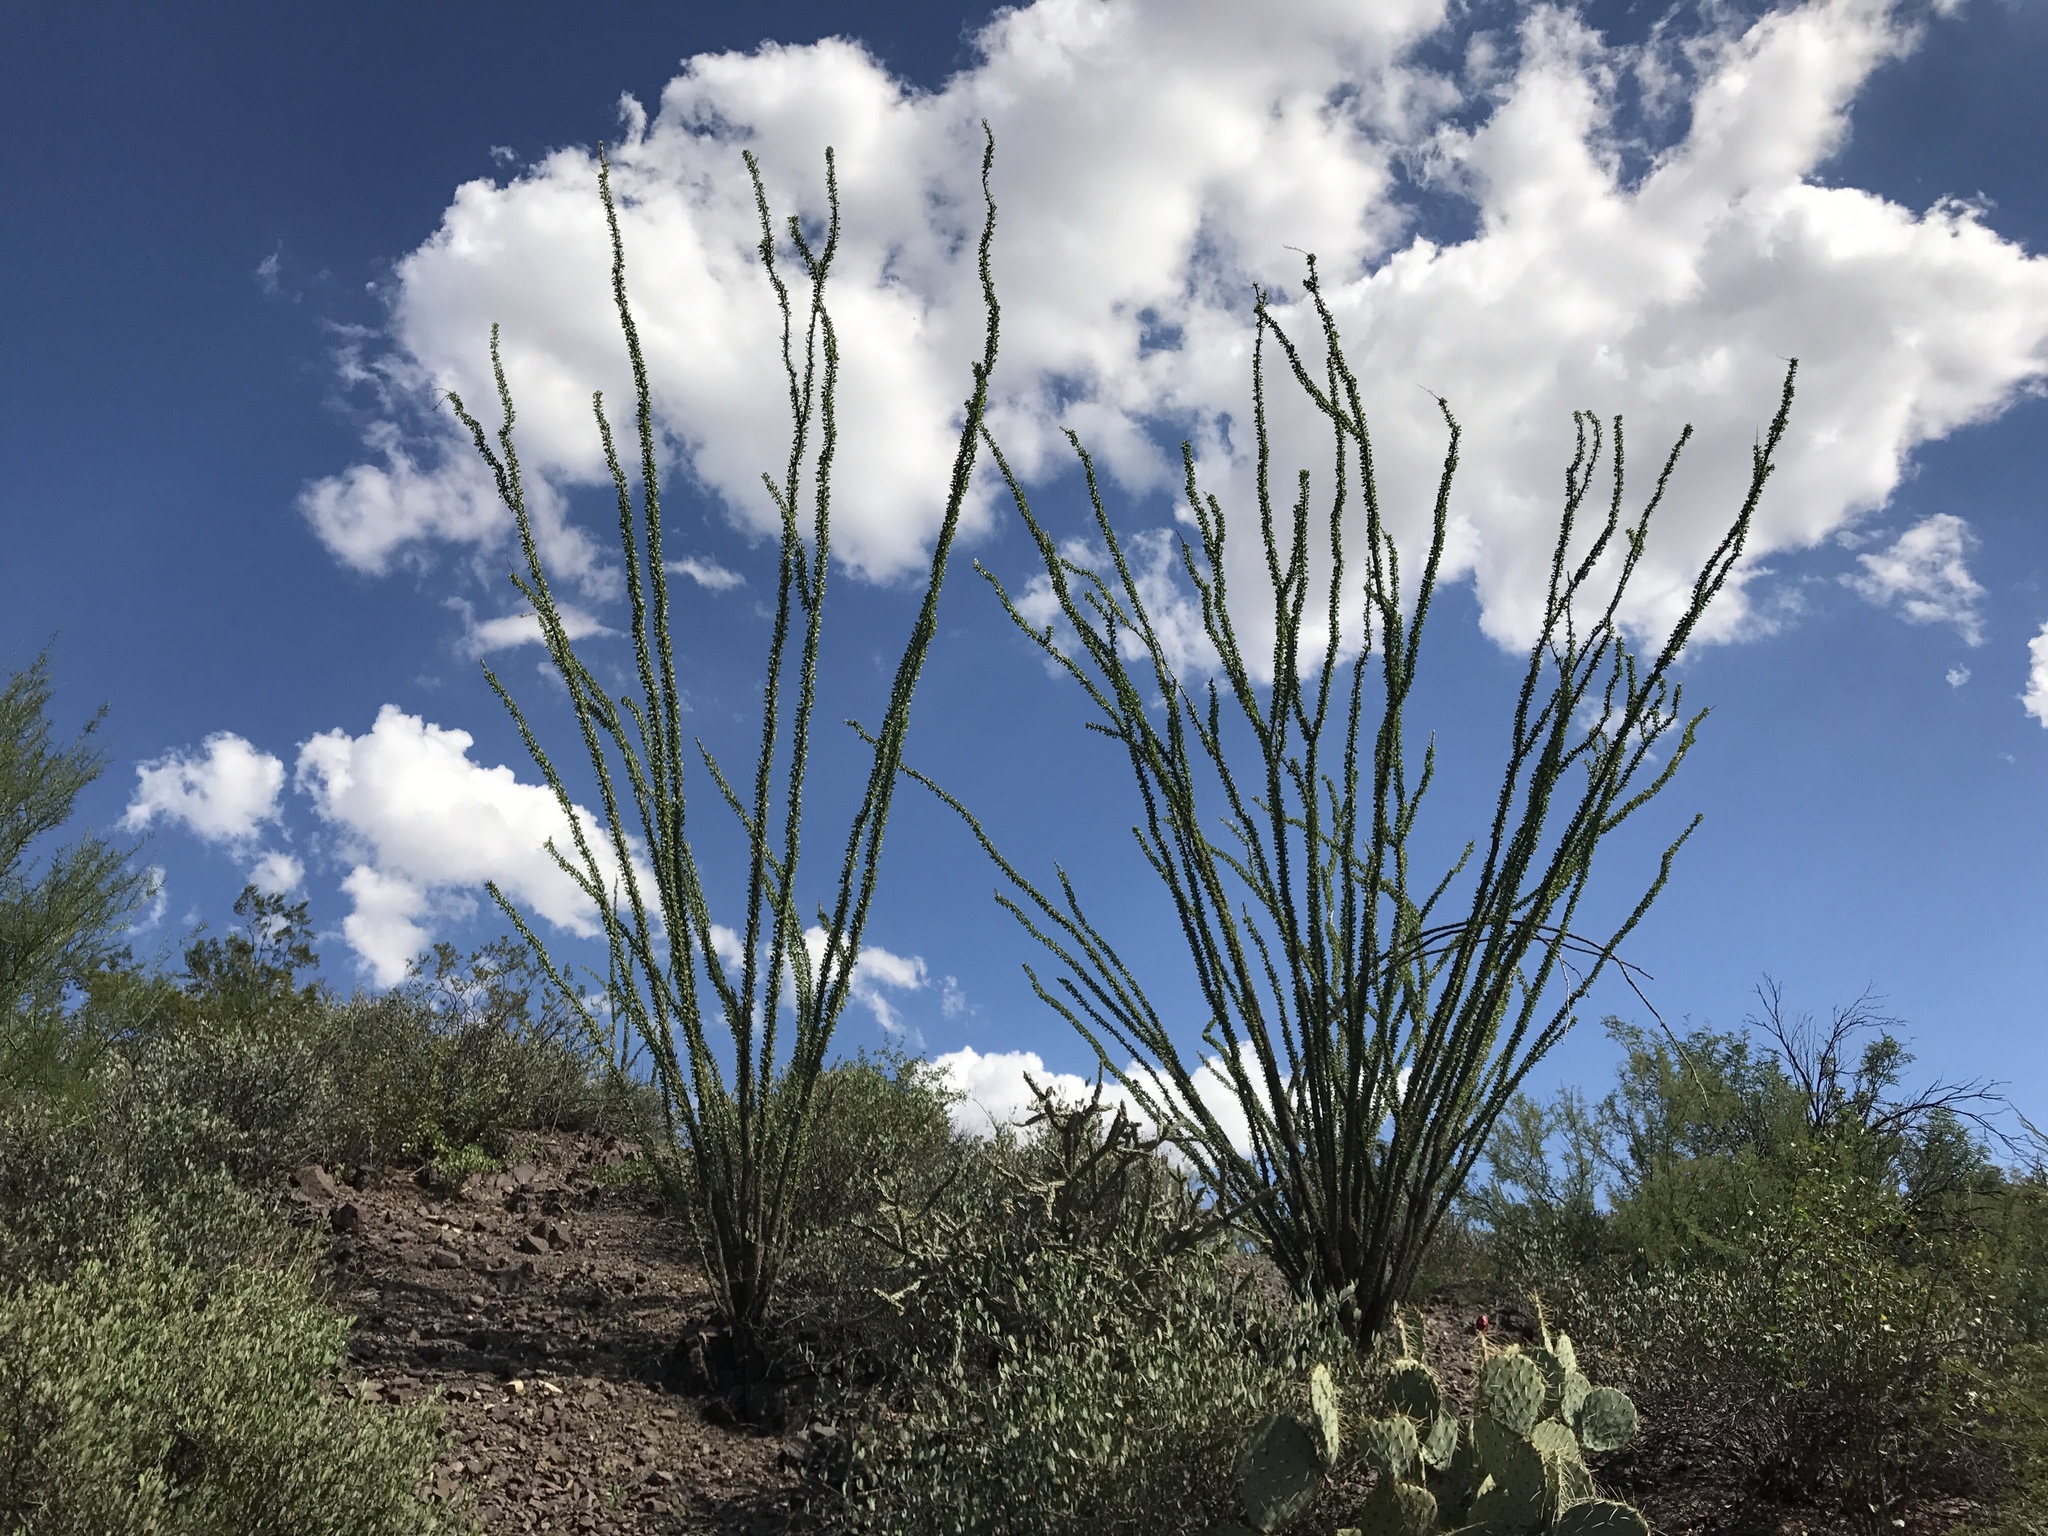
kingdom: Plantae
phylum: Tracheophyta
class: Magnoliopsida
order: Ericales
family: Fouquieriaceae
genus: Fouquieria
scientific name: Fouquieria splendens
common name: Vine-cactus
